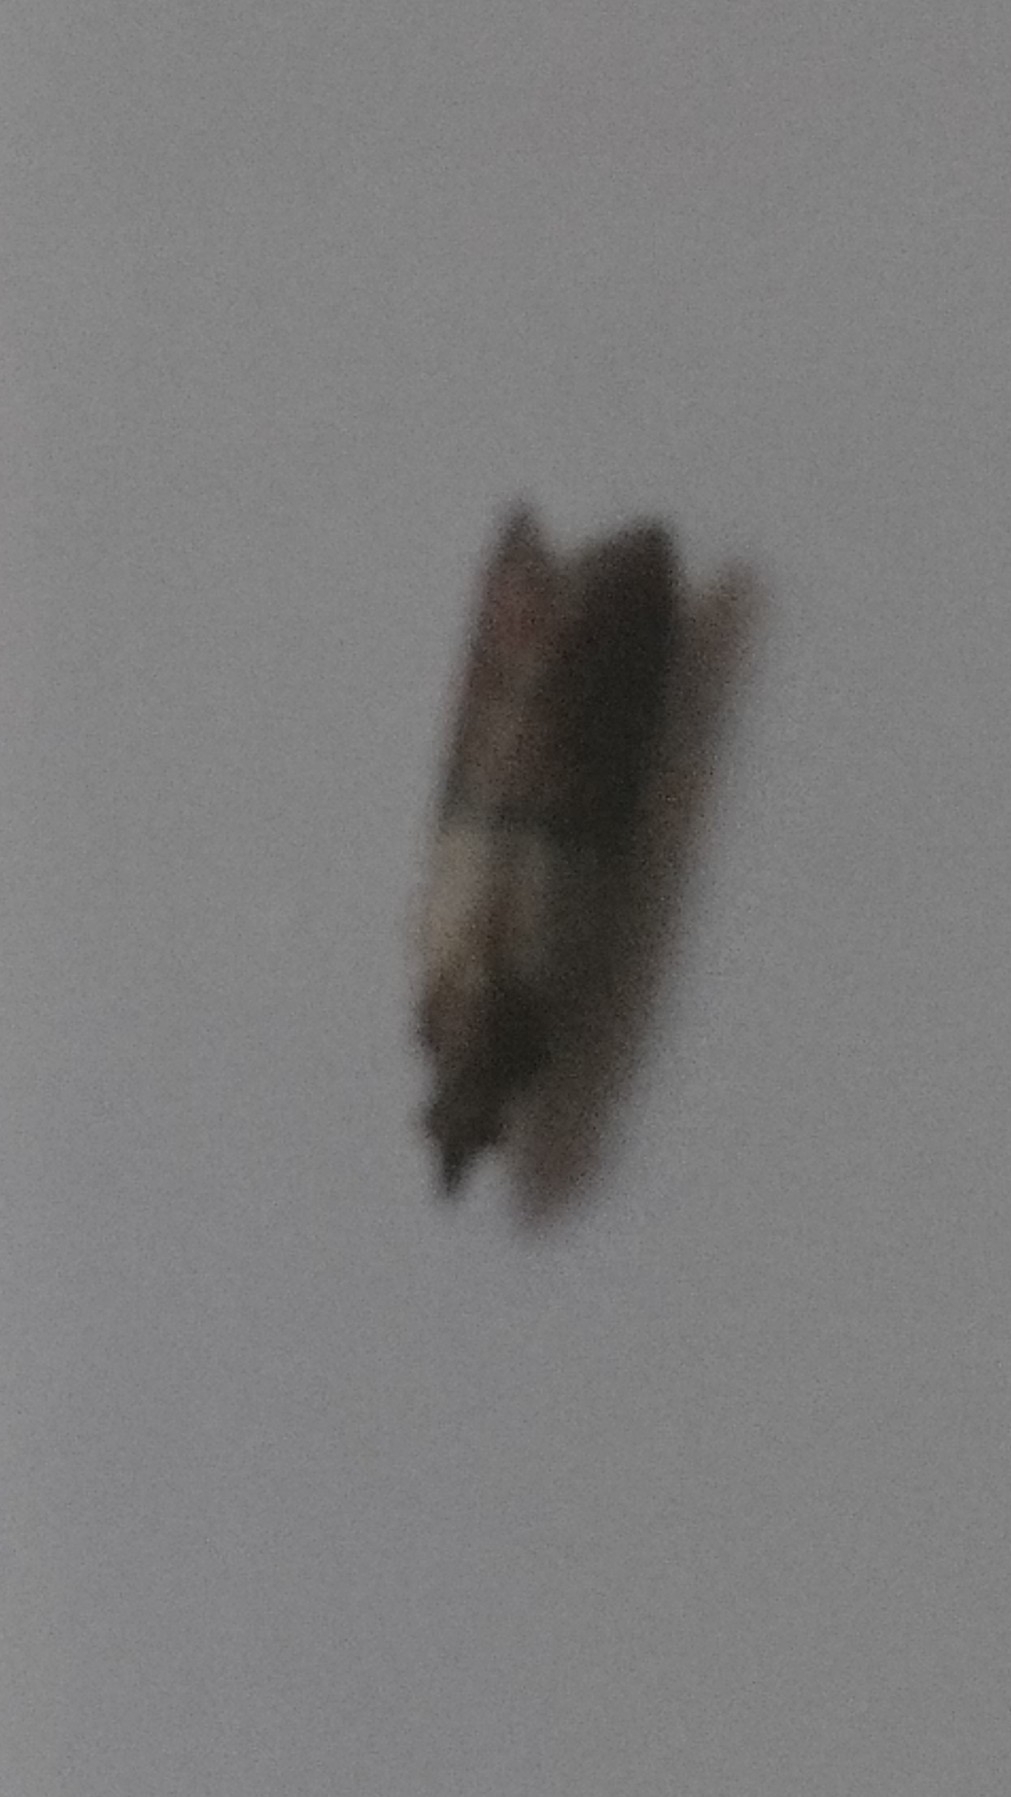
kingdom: Animalia
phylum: Arthropoda
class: Insecta
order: Lepidoptera
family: Pyralidae
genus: Plodia
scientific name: Plodia interpunctella
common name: Indian meal moth
